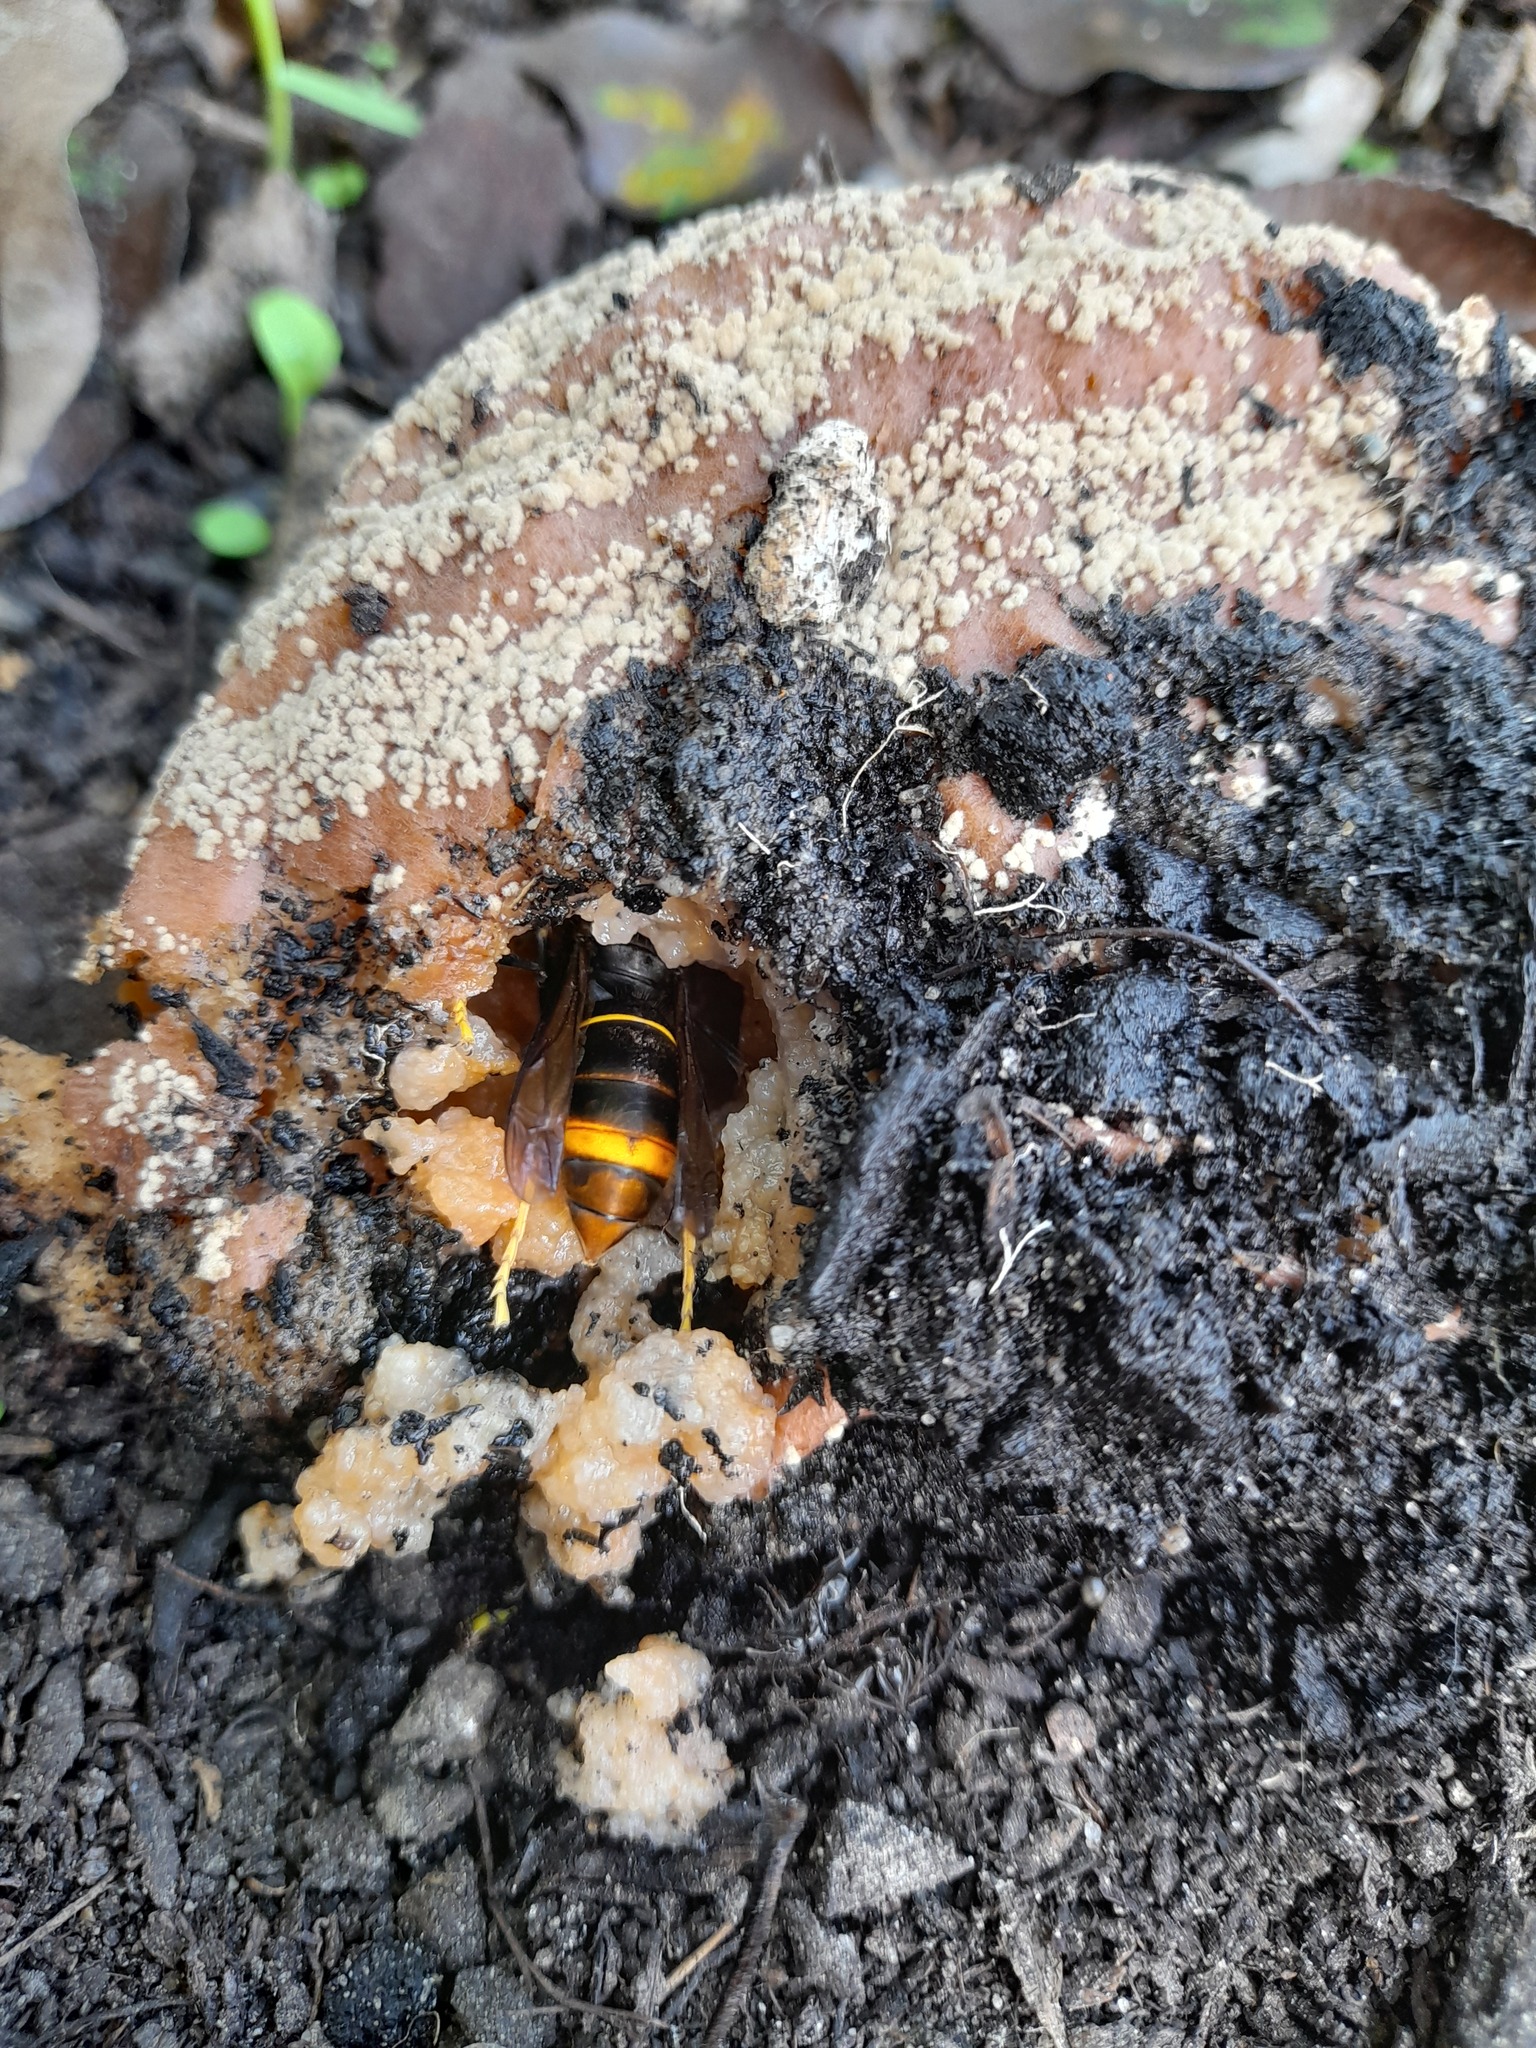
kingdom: Animalia
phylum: Arthropoda
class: Insecta
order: Hymenoptera
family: Vespidae
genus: Vespa
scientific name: Vespa velutina
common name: Asian hornet
